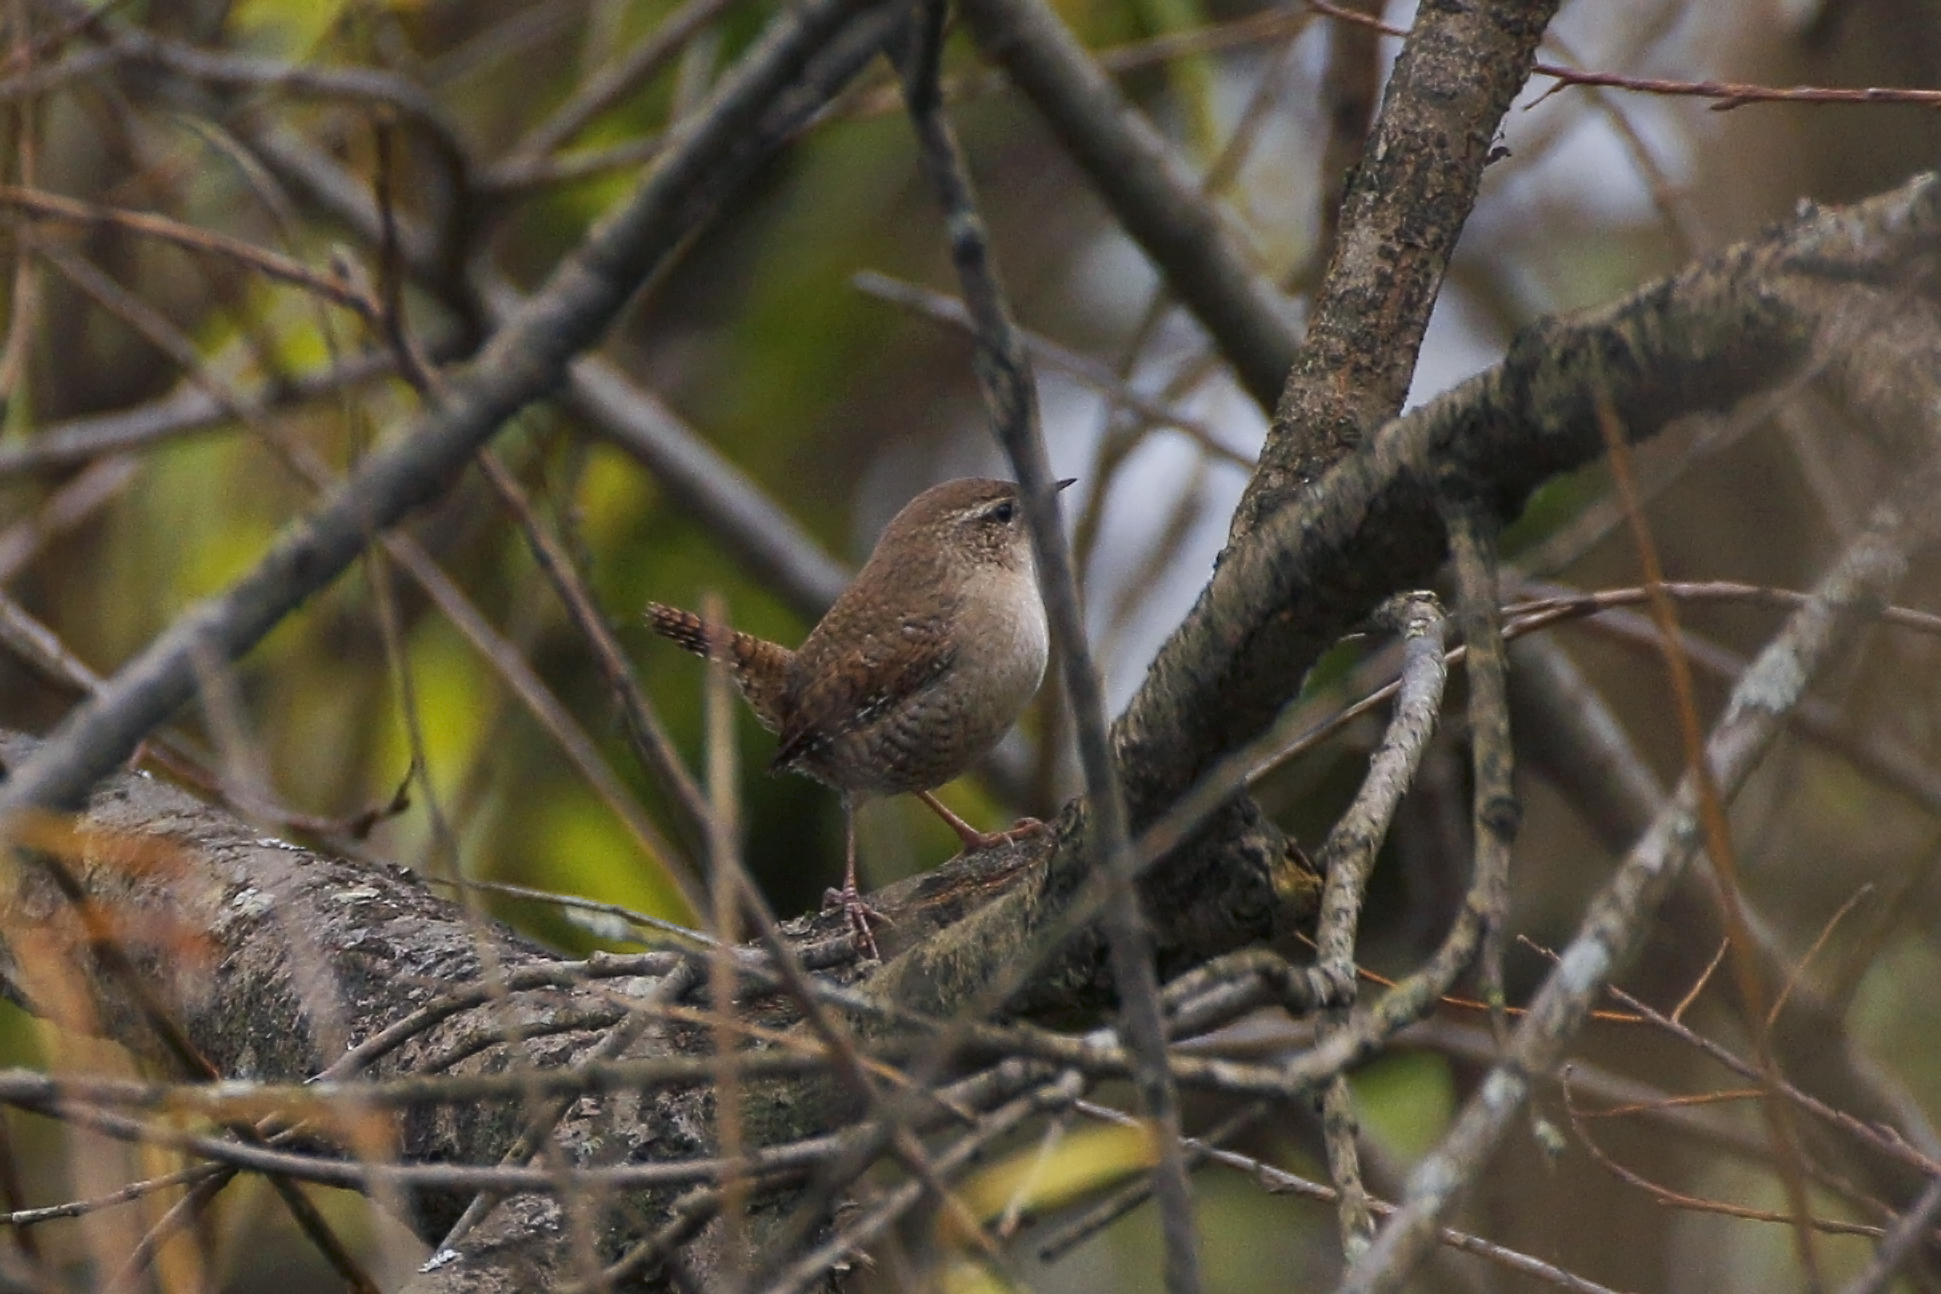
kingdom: Animalia
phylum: Chordata
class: Aves
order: Passeriformes
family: Troglodytidae
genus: Troglodytes
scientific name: Troglodytes troglodytes
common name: Eurasian wren
